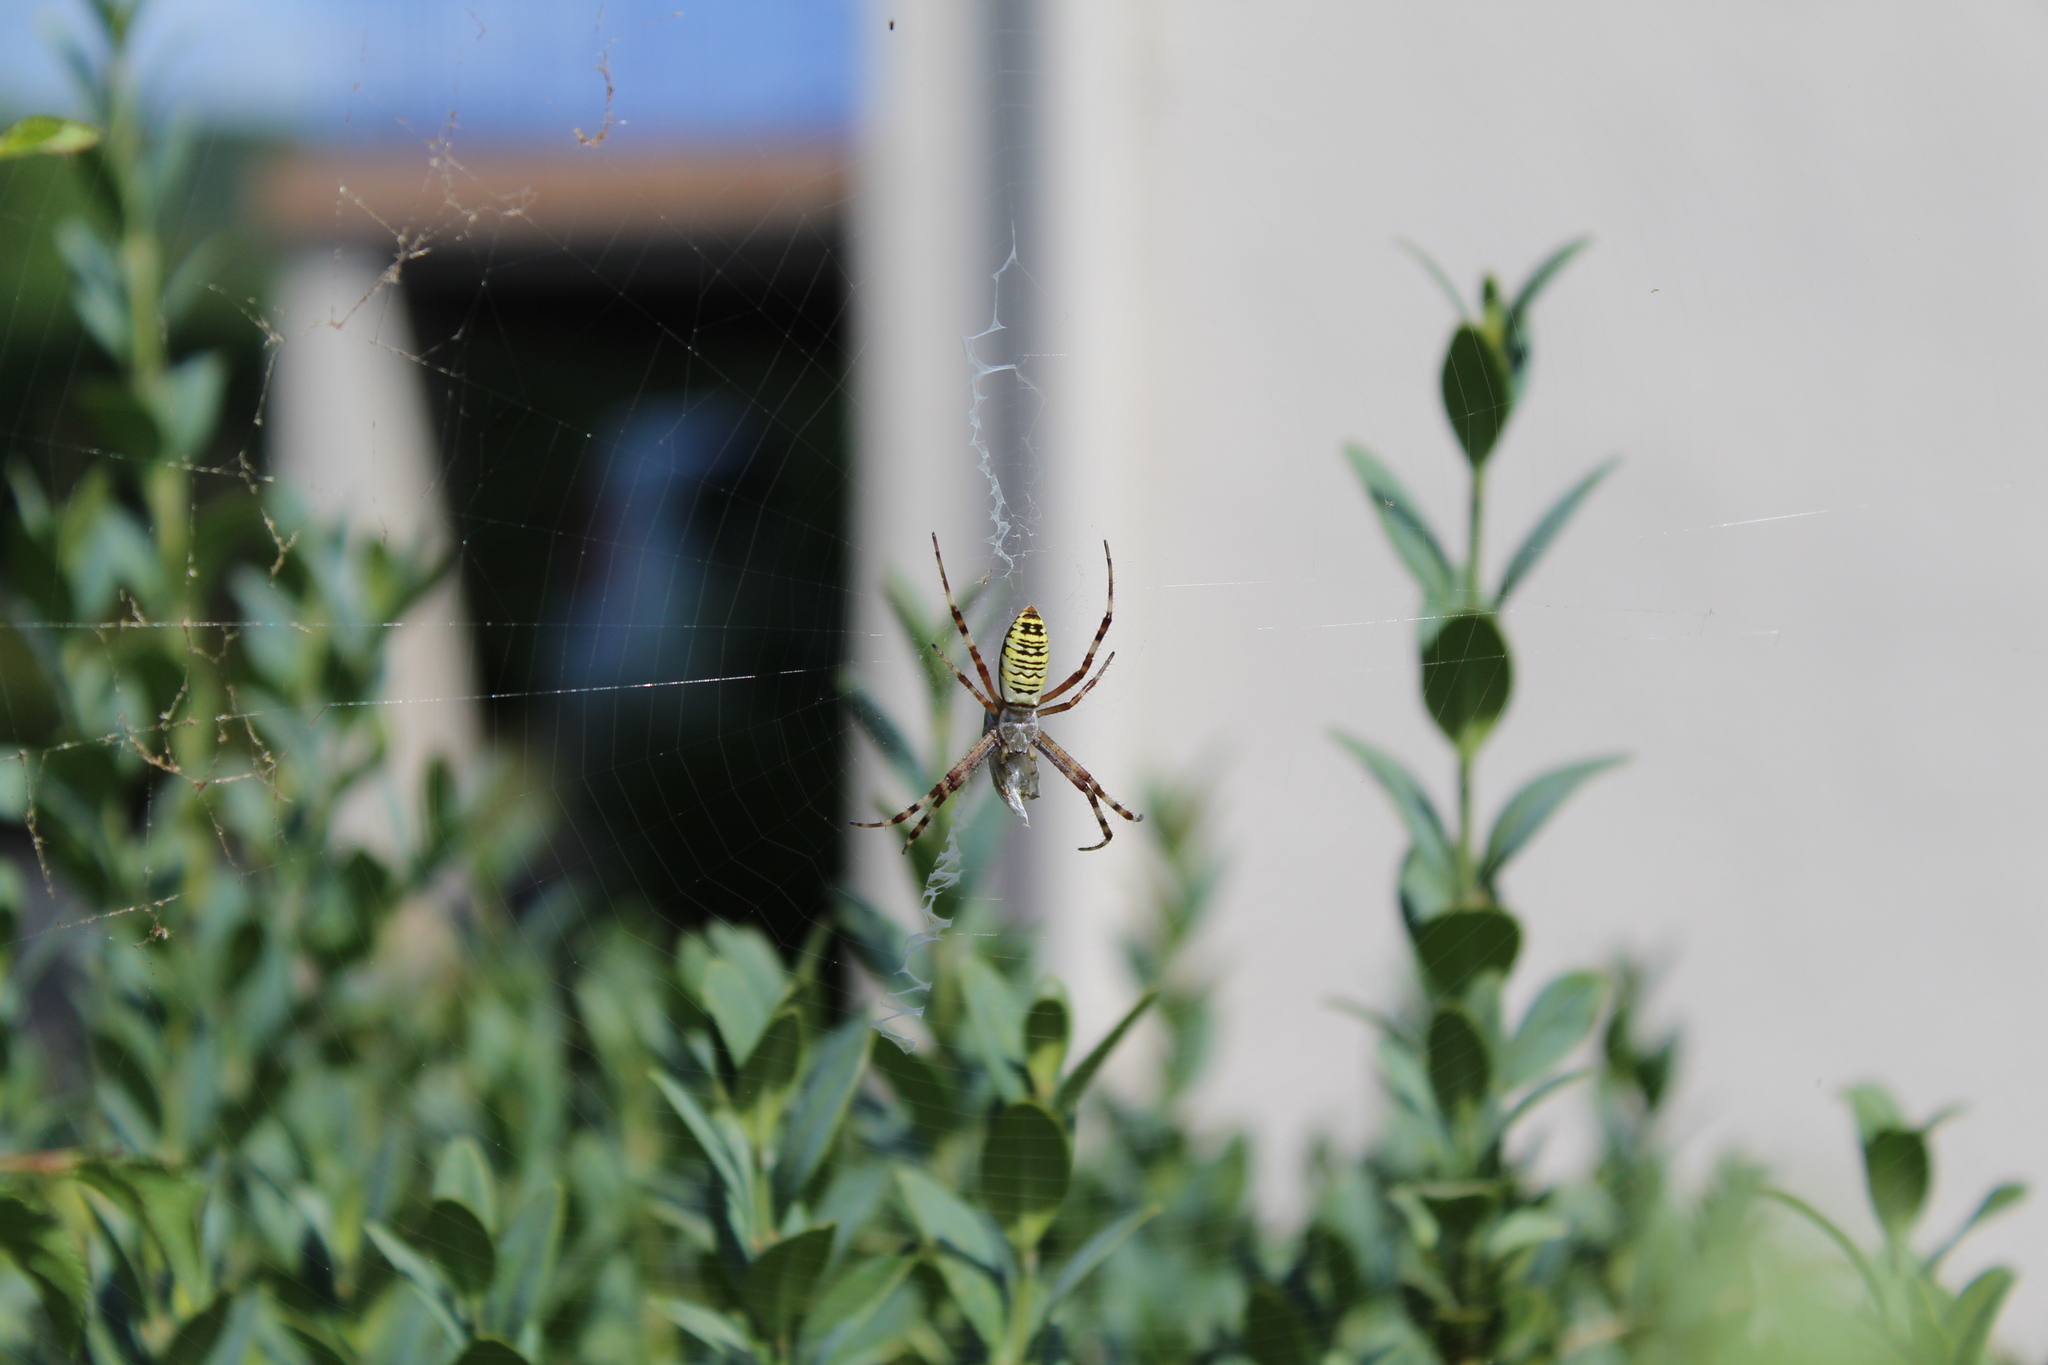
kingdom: Animalia
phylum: Arthropoda
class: Arachnida
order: Araneae
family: Araneidae
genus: Argiope
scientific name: Argiope bruennichi
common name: Wasp spider
